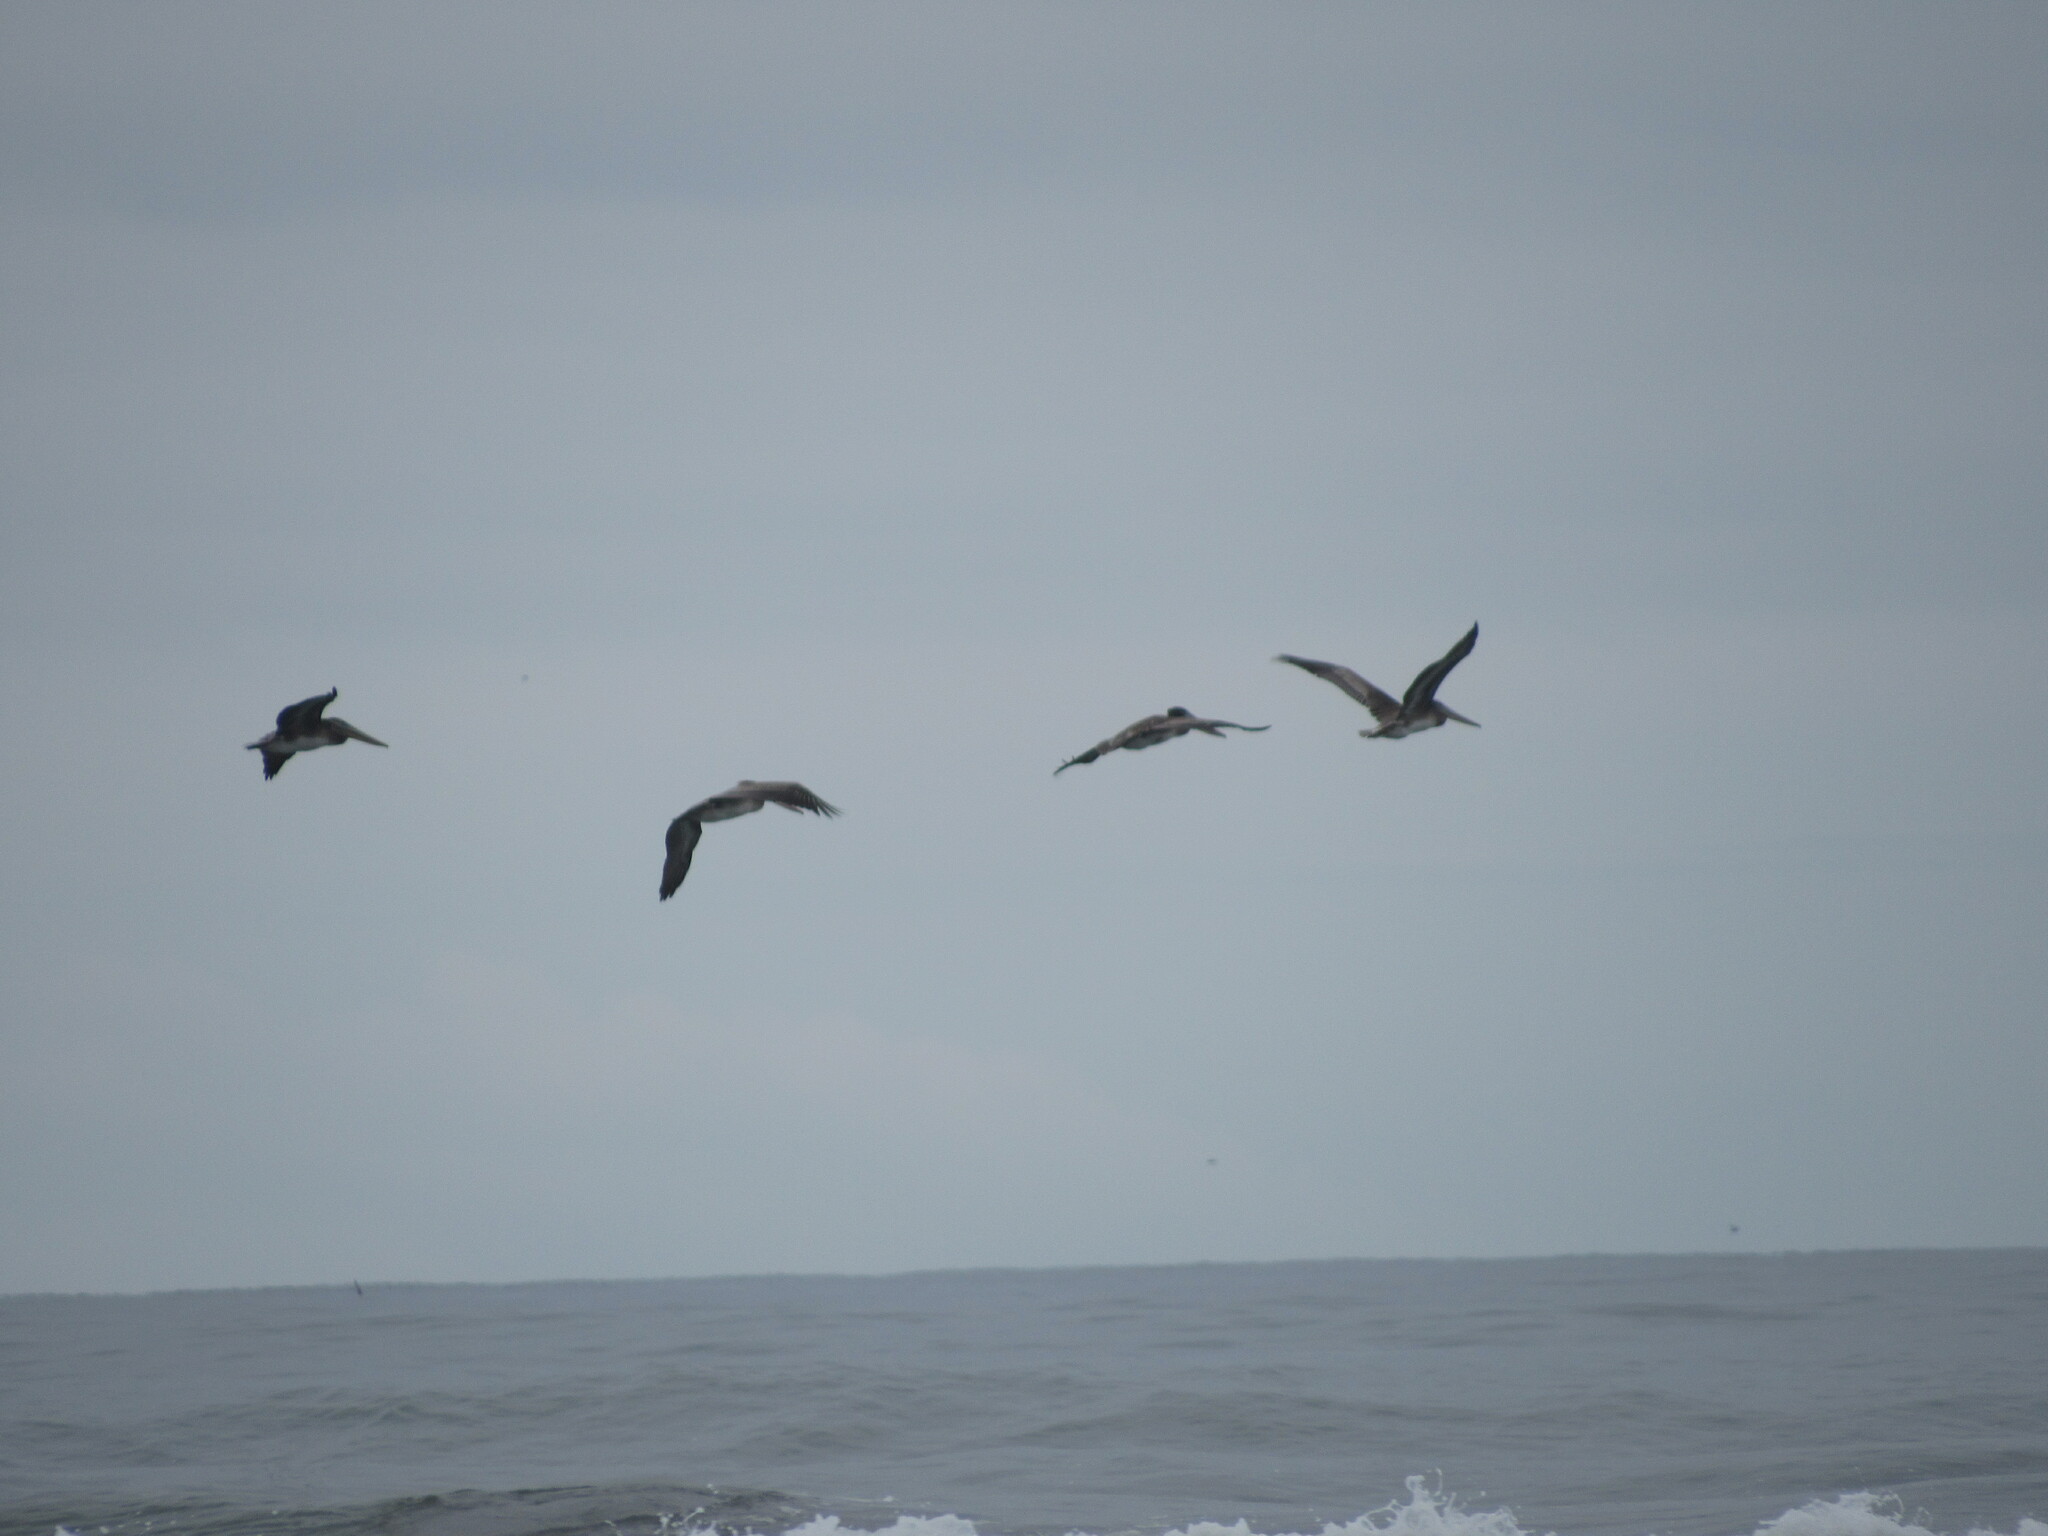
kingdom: Animalia
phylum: Chordata
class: Aves
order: Pelecaniformes
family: Pelecanidae
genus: Pelecanus
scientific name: Pelecanus occidentalis
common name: Brown pelican
